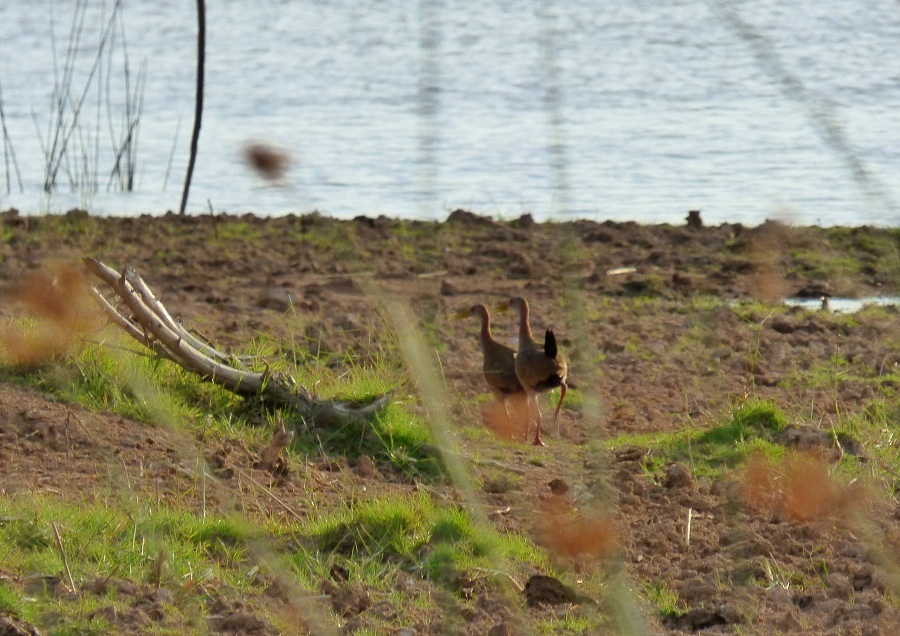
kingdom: Animalia
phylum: Chordata
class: Aves
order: Gruiformes
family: Rallidae
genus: Aramides
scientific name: Aramides ypecaha
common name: Giant wood rail
